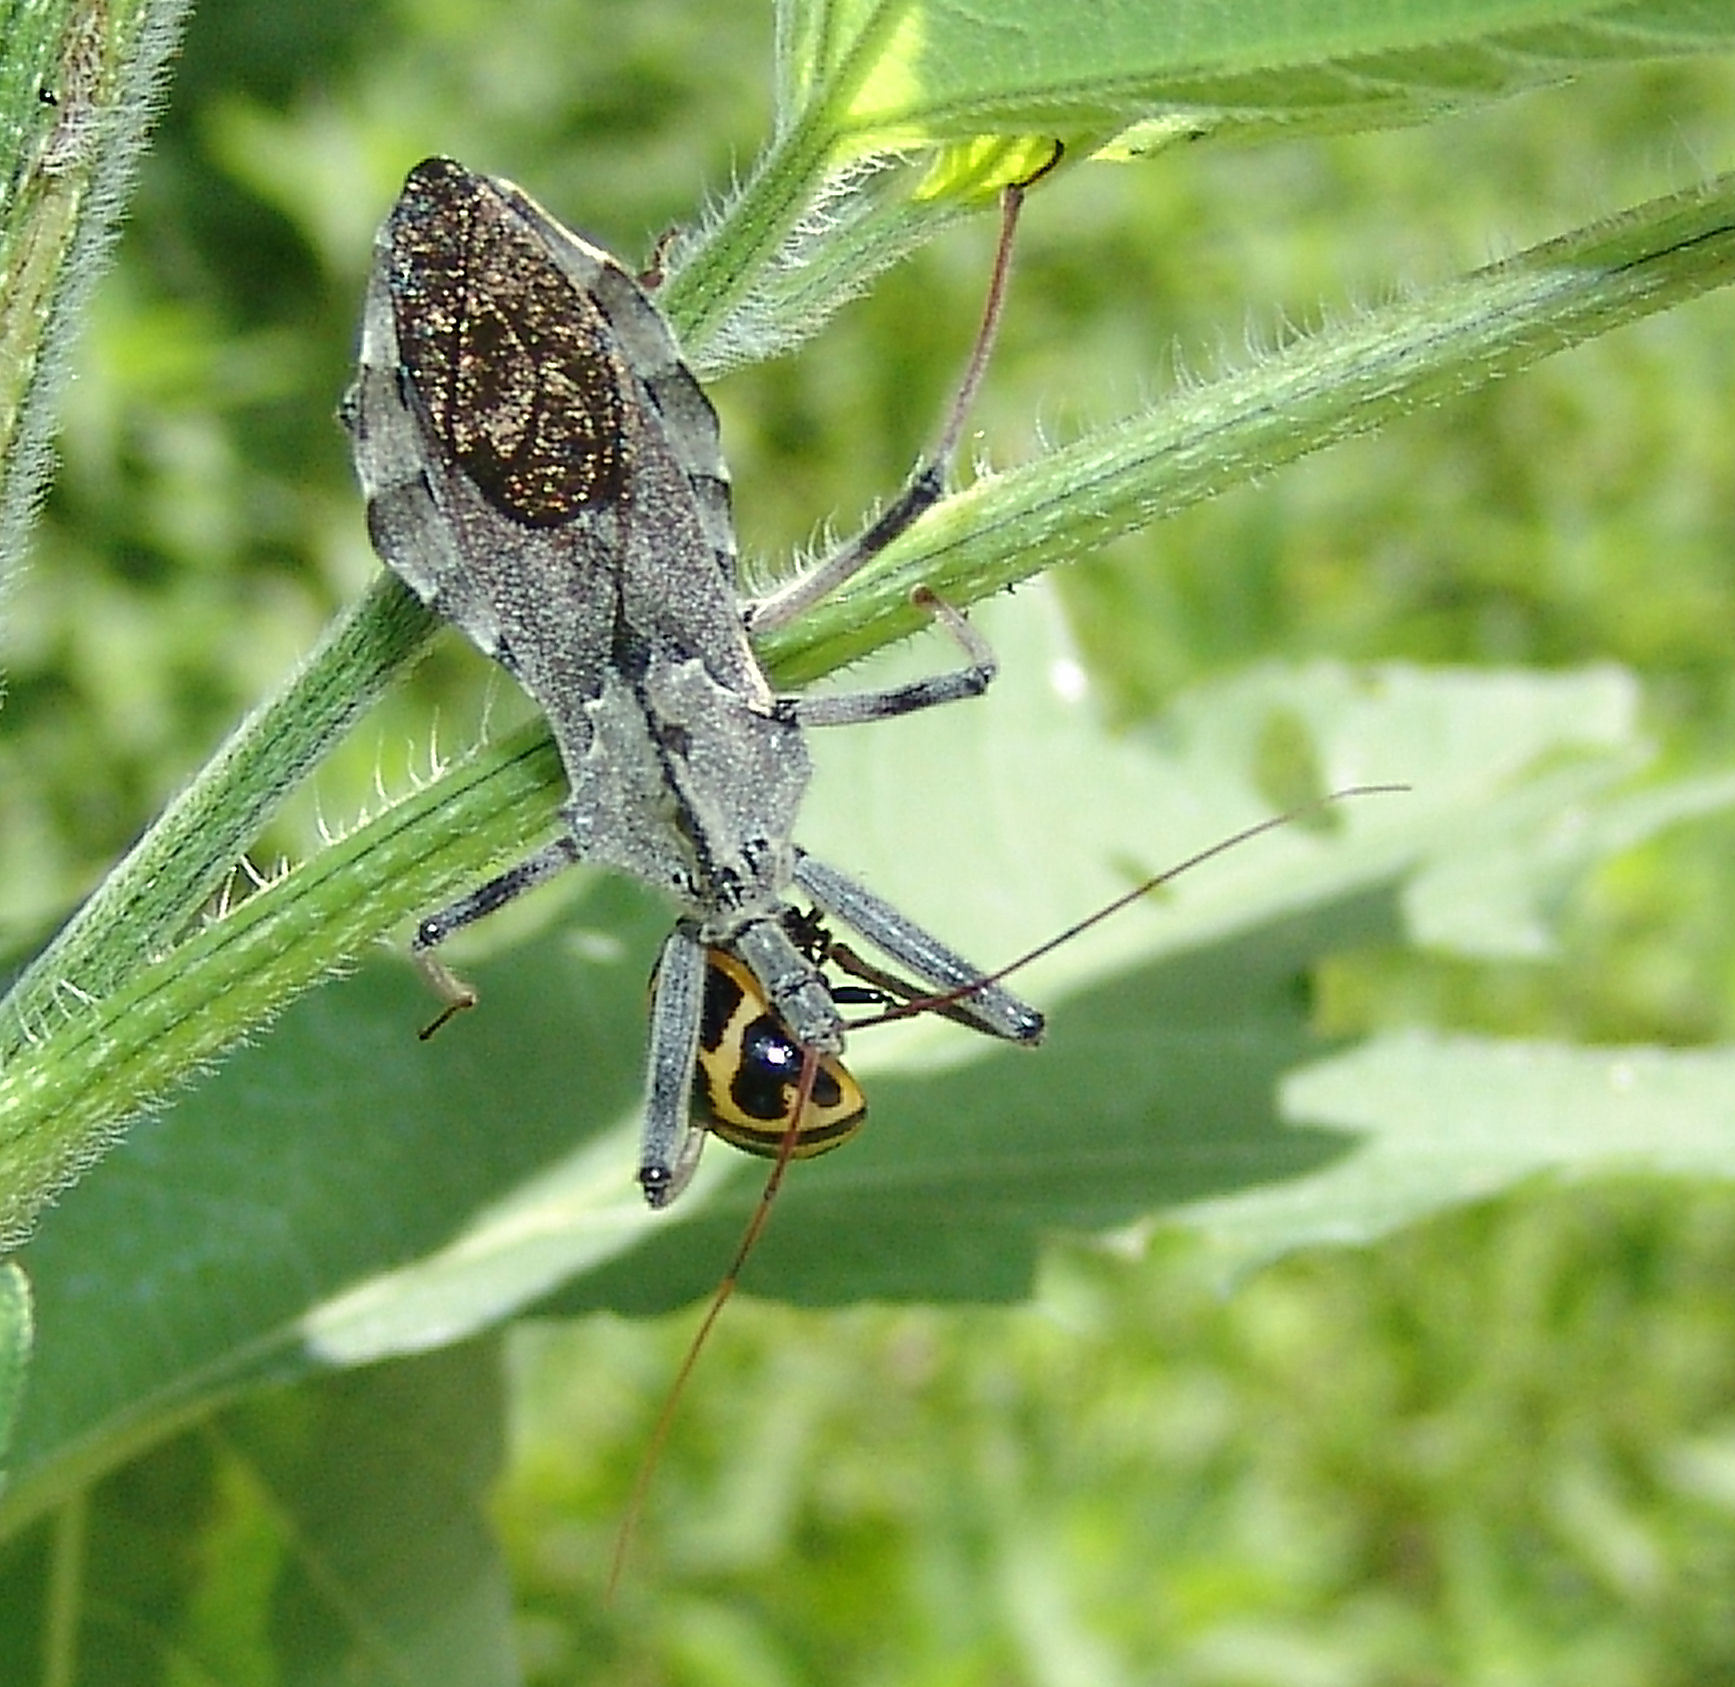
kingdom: Animalia
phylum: Arthropoda
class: Insecta
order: Hemiptera
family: Reduviidae
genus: Arilus
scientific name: Arilus cristatus
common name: North american wheel bug
